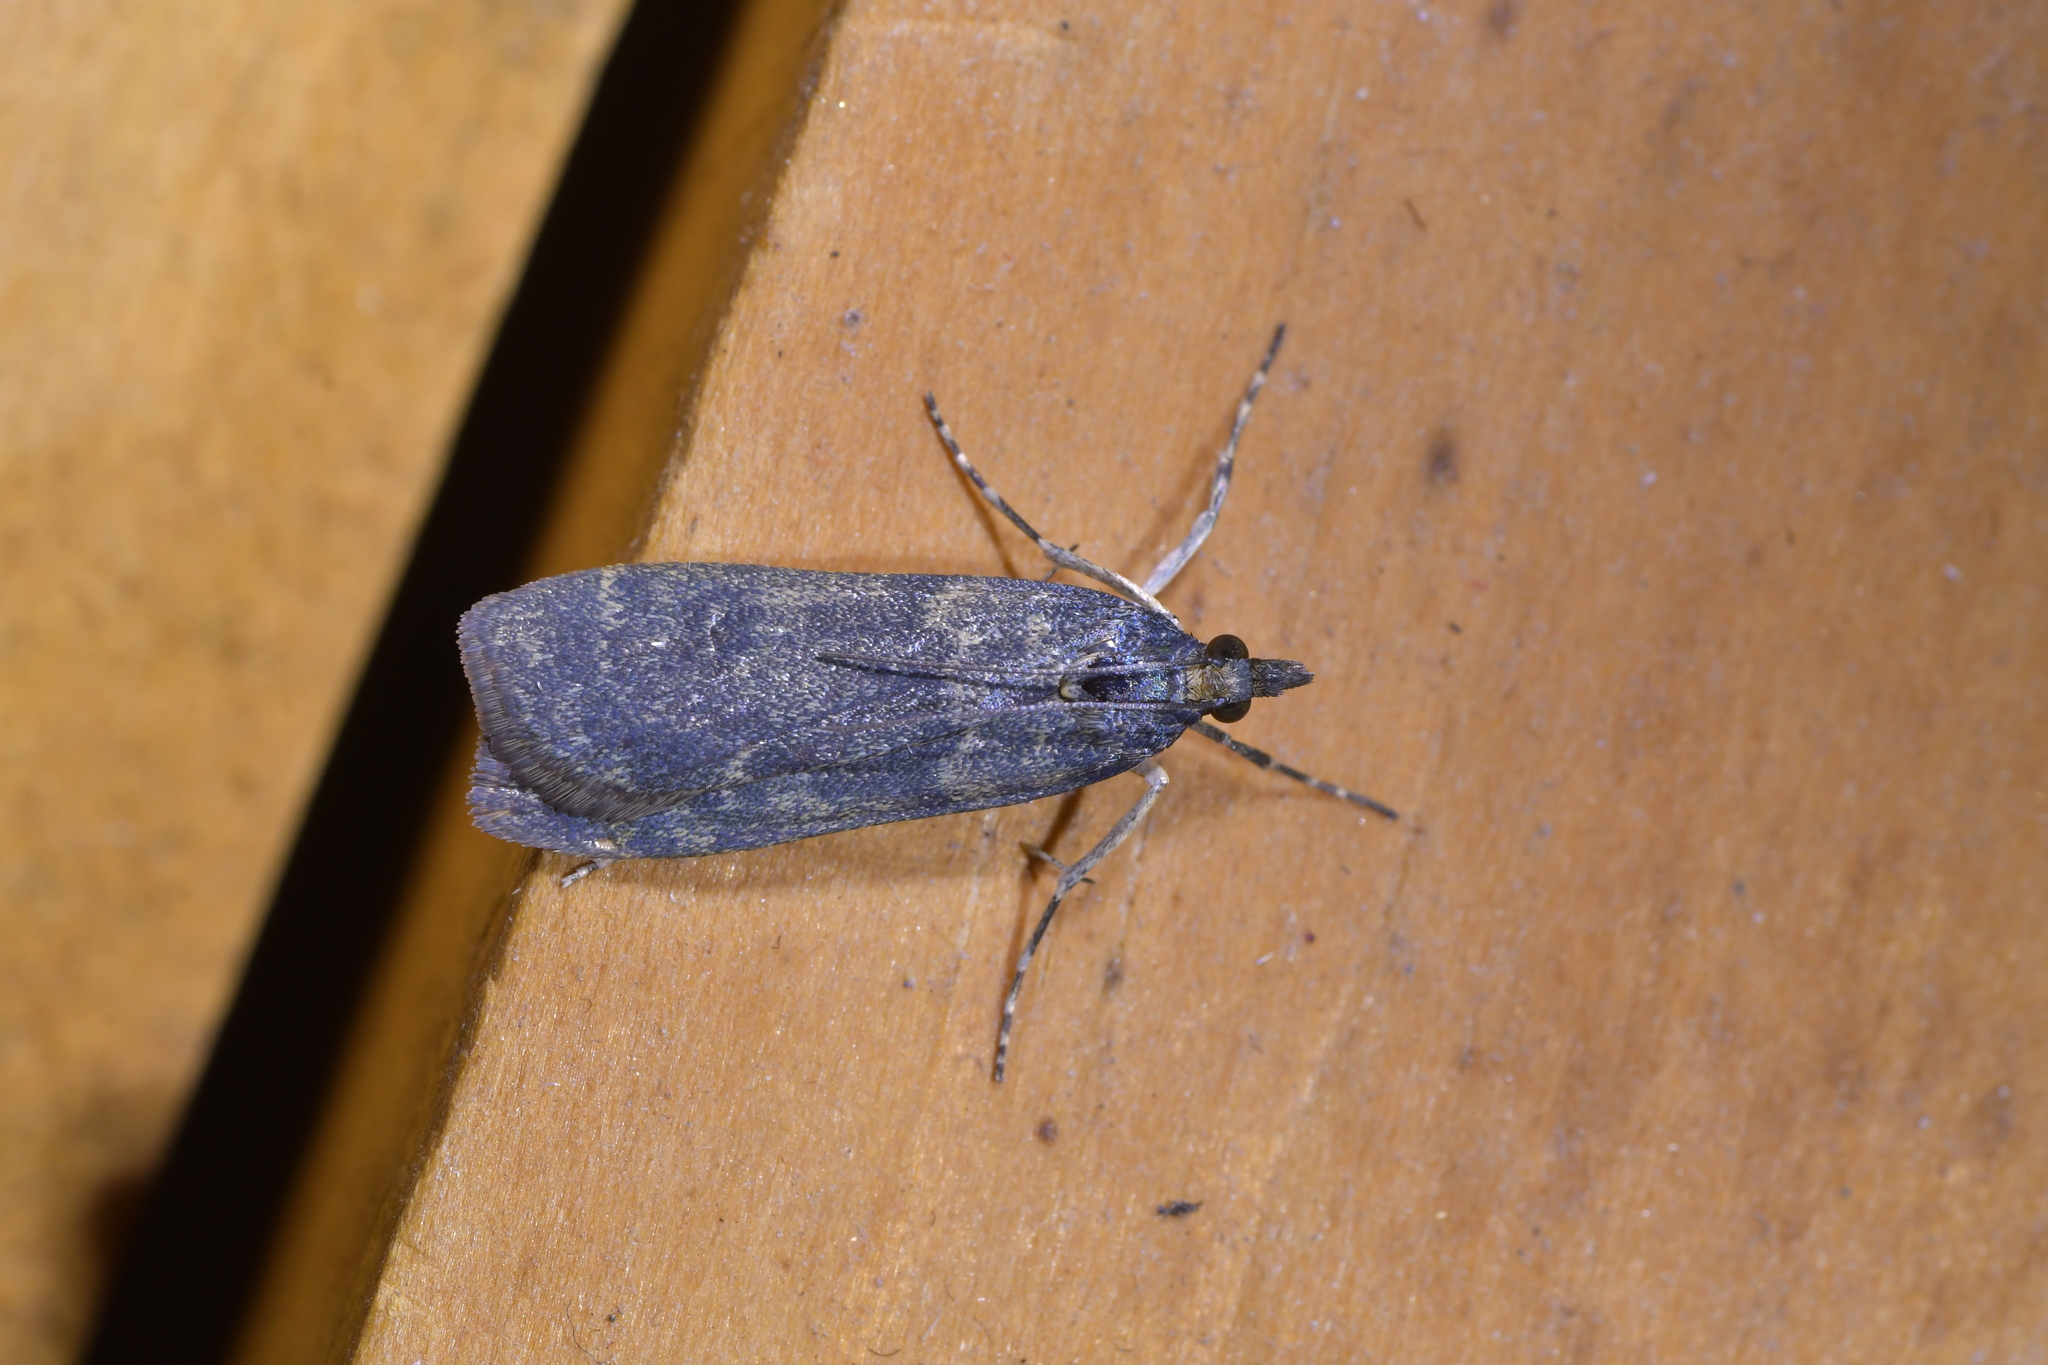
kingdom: Animalia
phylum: Arthropoda
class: Insecta
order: Lepidoptera
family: Crambidae
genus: Eudonia
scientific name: Eudonia cataxesta
